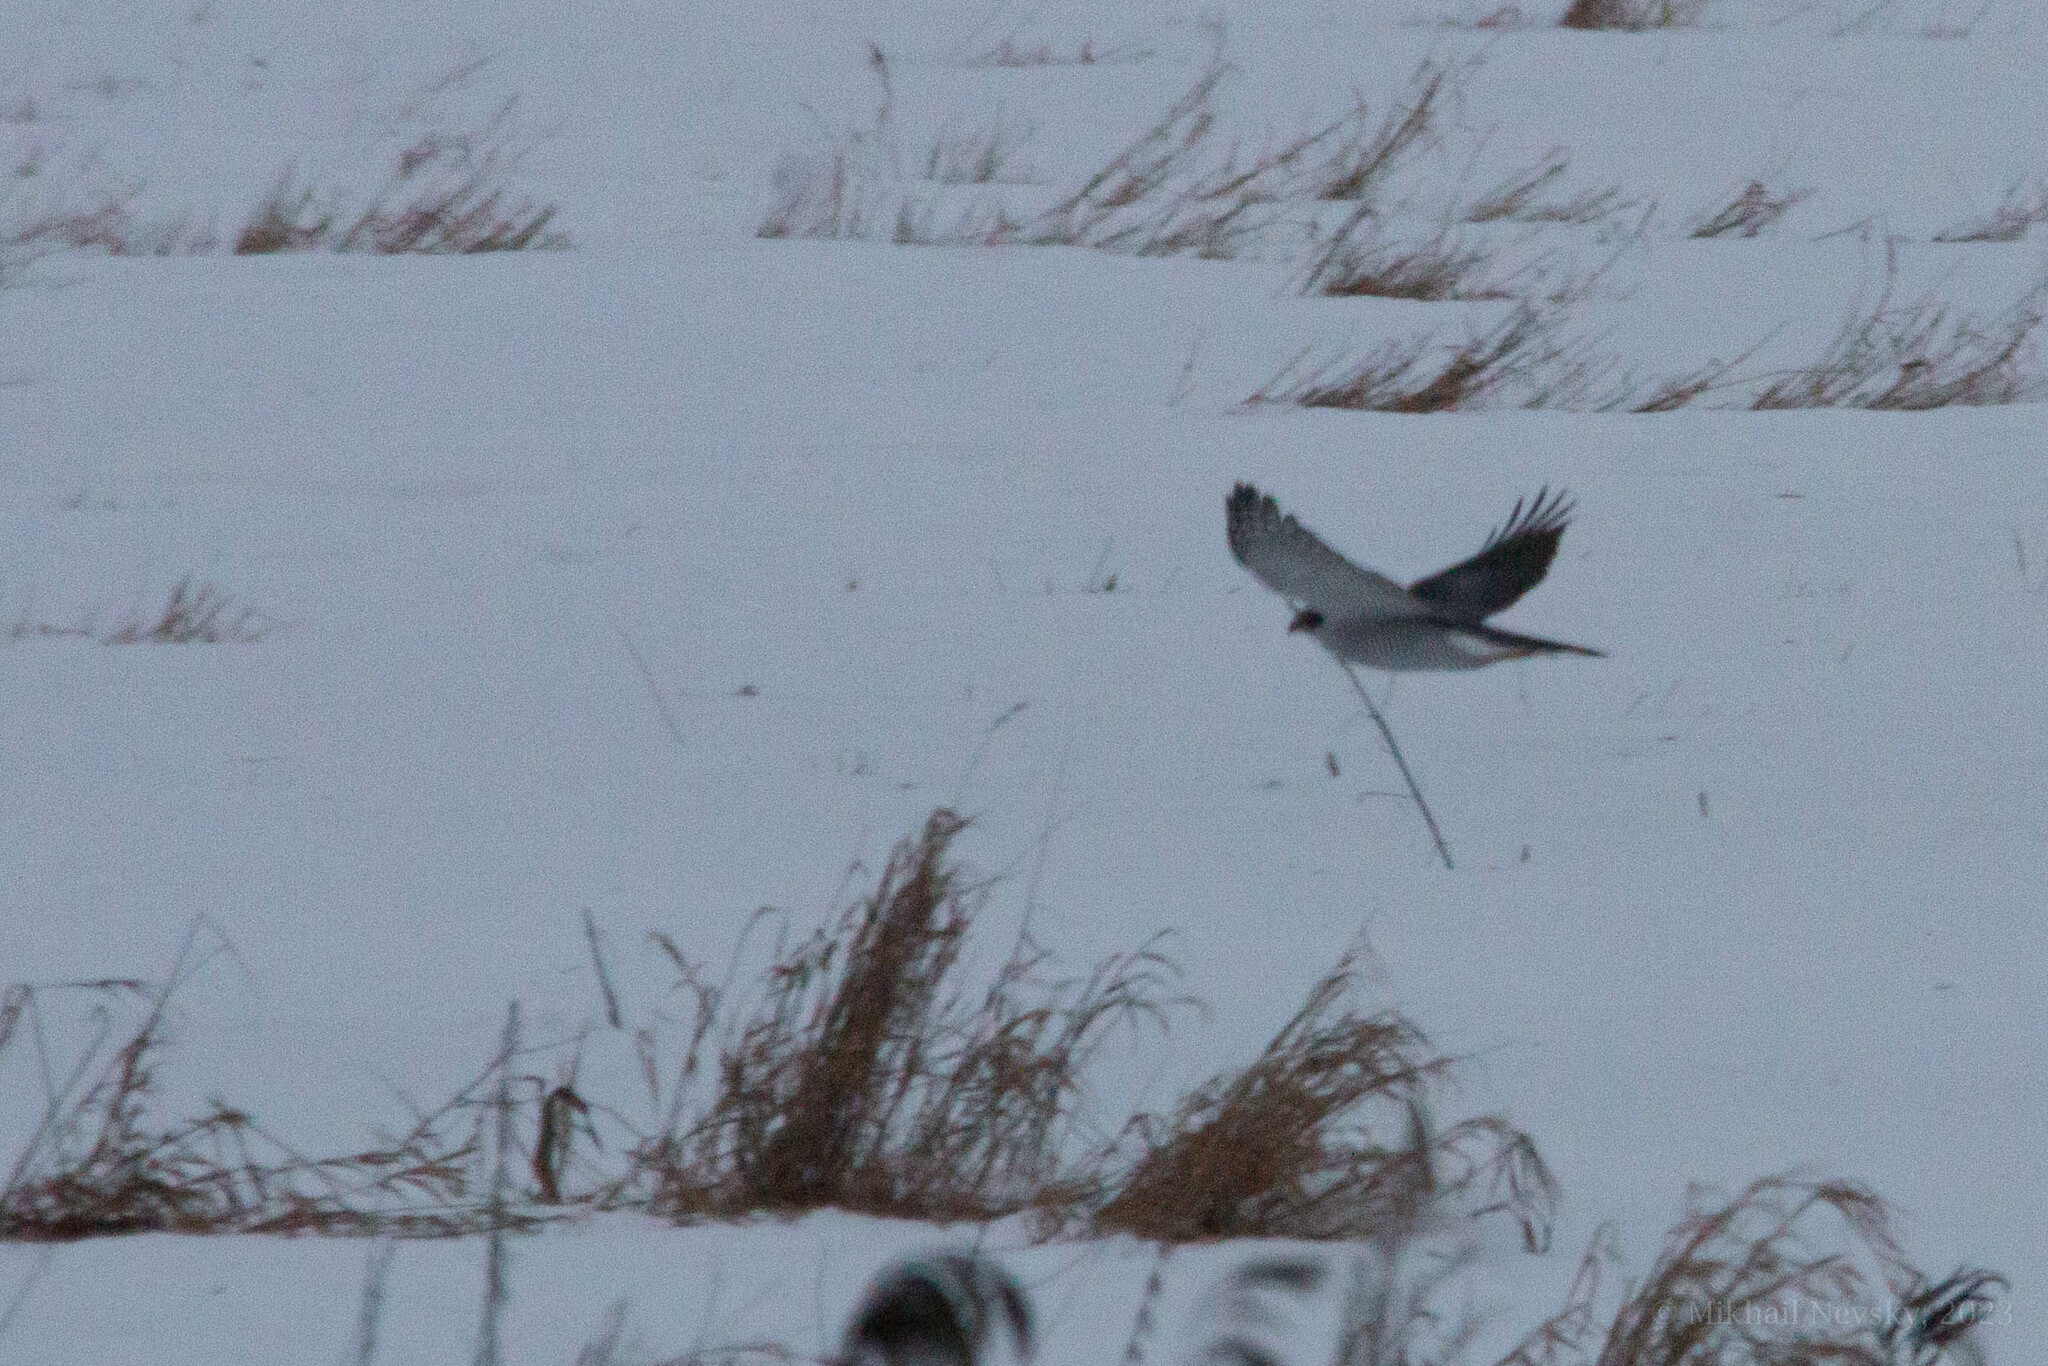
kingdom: Animalia
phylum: Chordata
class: Aves
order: Accipitriformes
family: Accipitridae
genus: Accipiter
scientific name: Accipiter gentilis
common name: Northern goshawk
